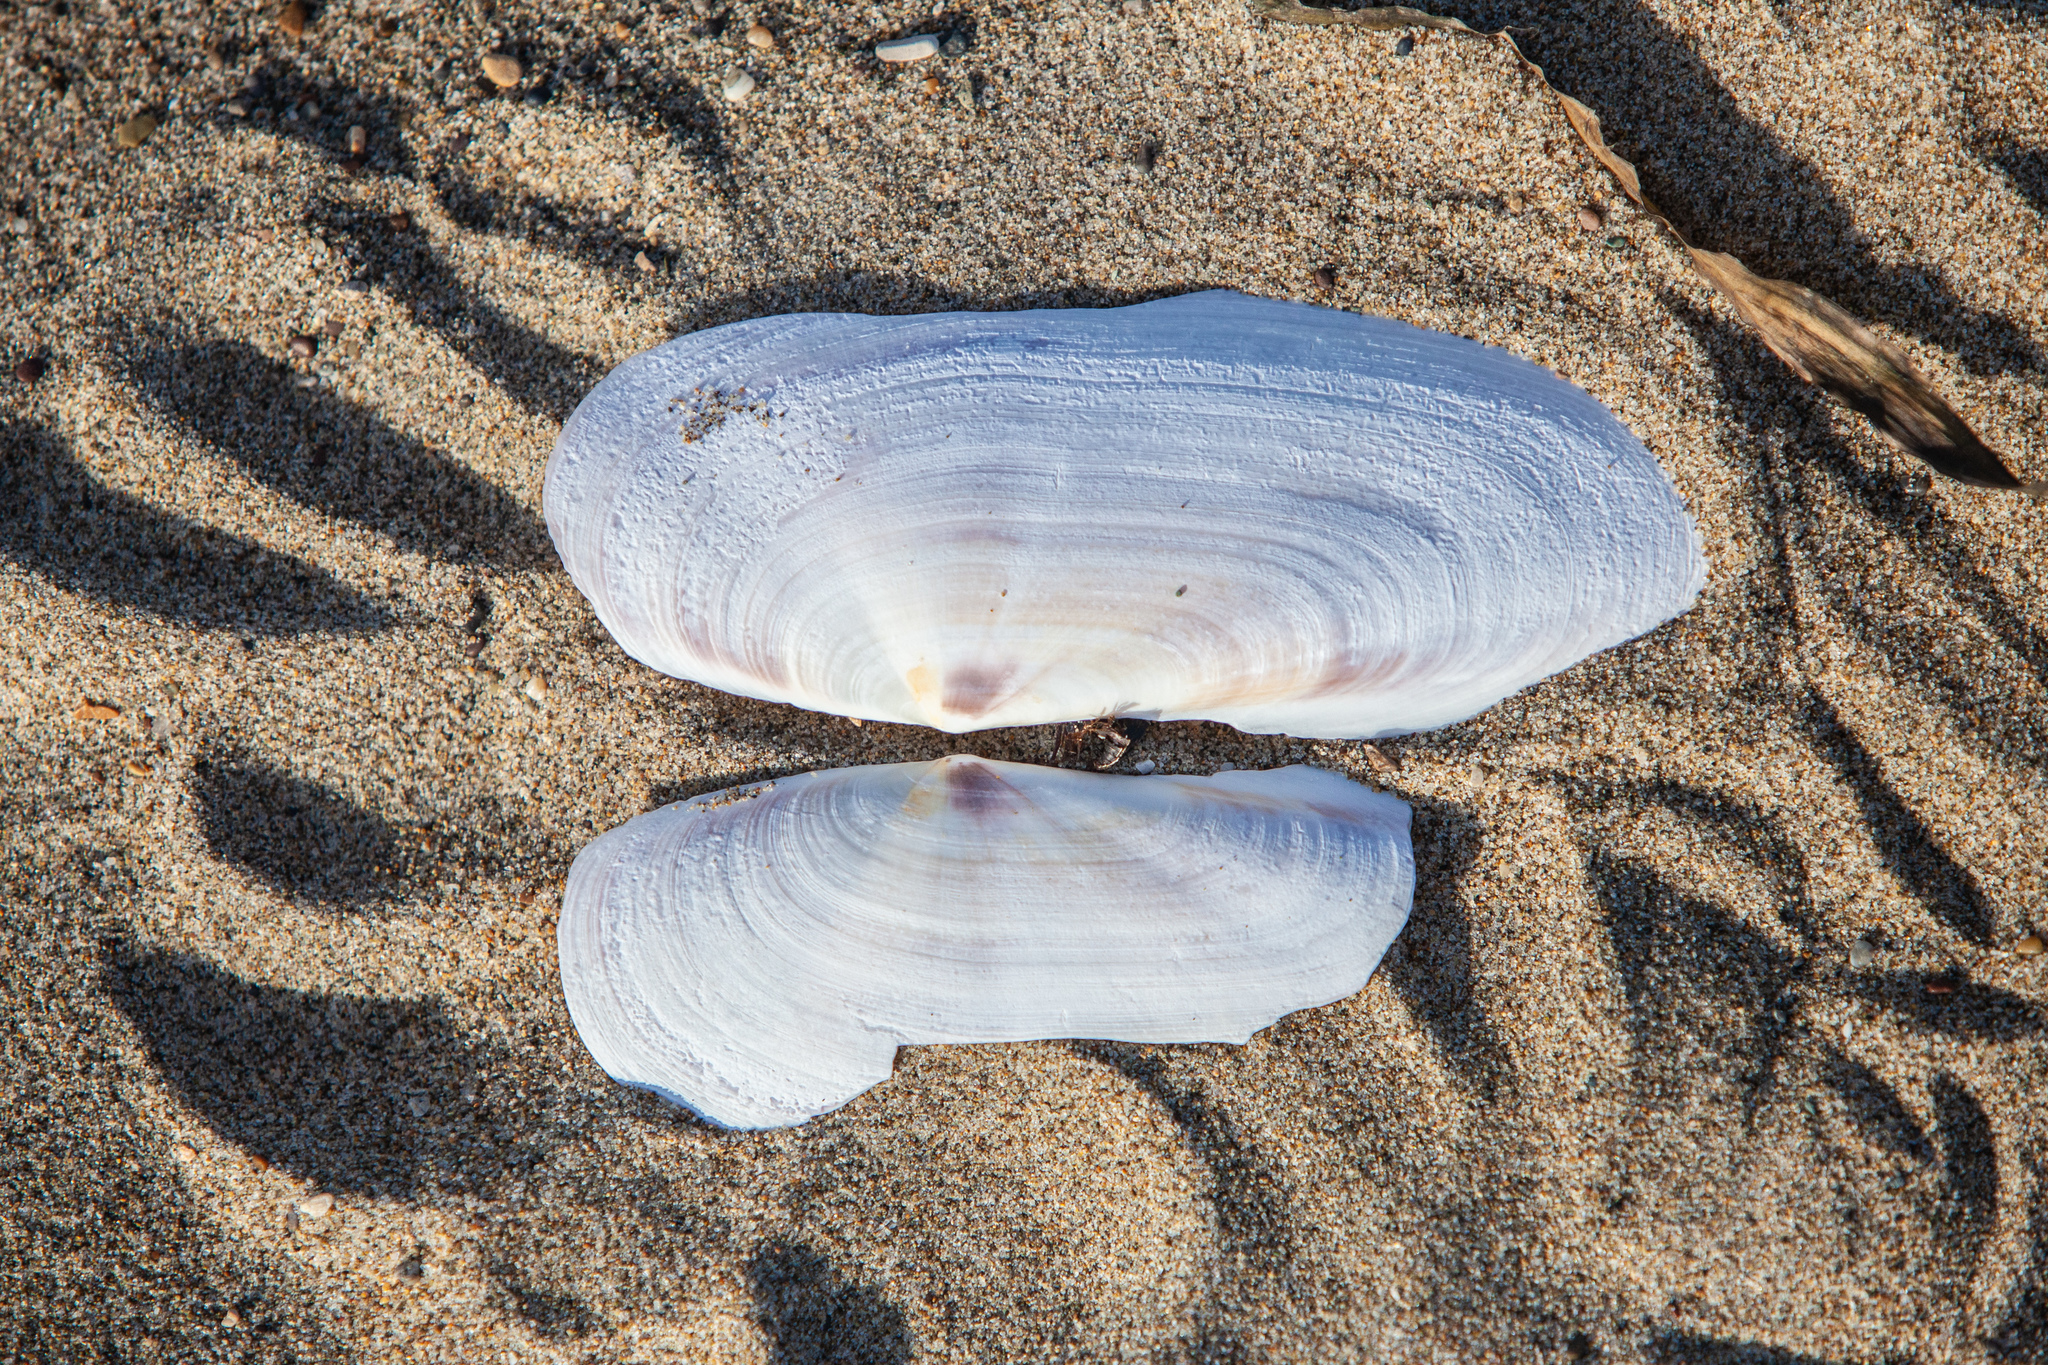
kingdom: Animalia
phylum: Mollusca
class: Bivalvia
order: Adapedonta
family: Pharidae
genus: Siliqua
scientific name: Siliqua patula
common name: Pacific razor clam
